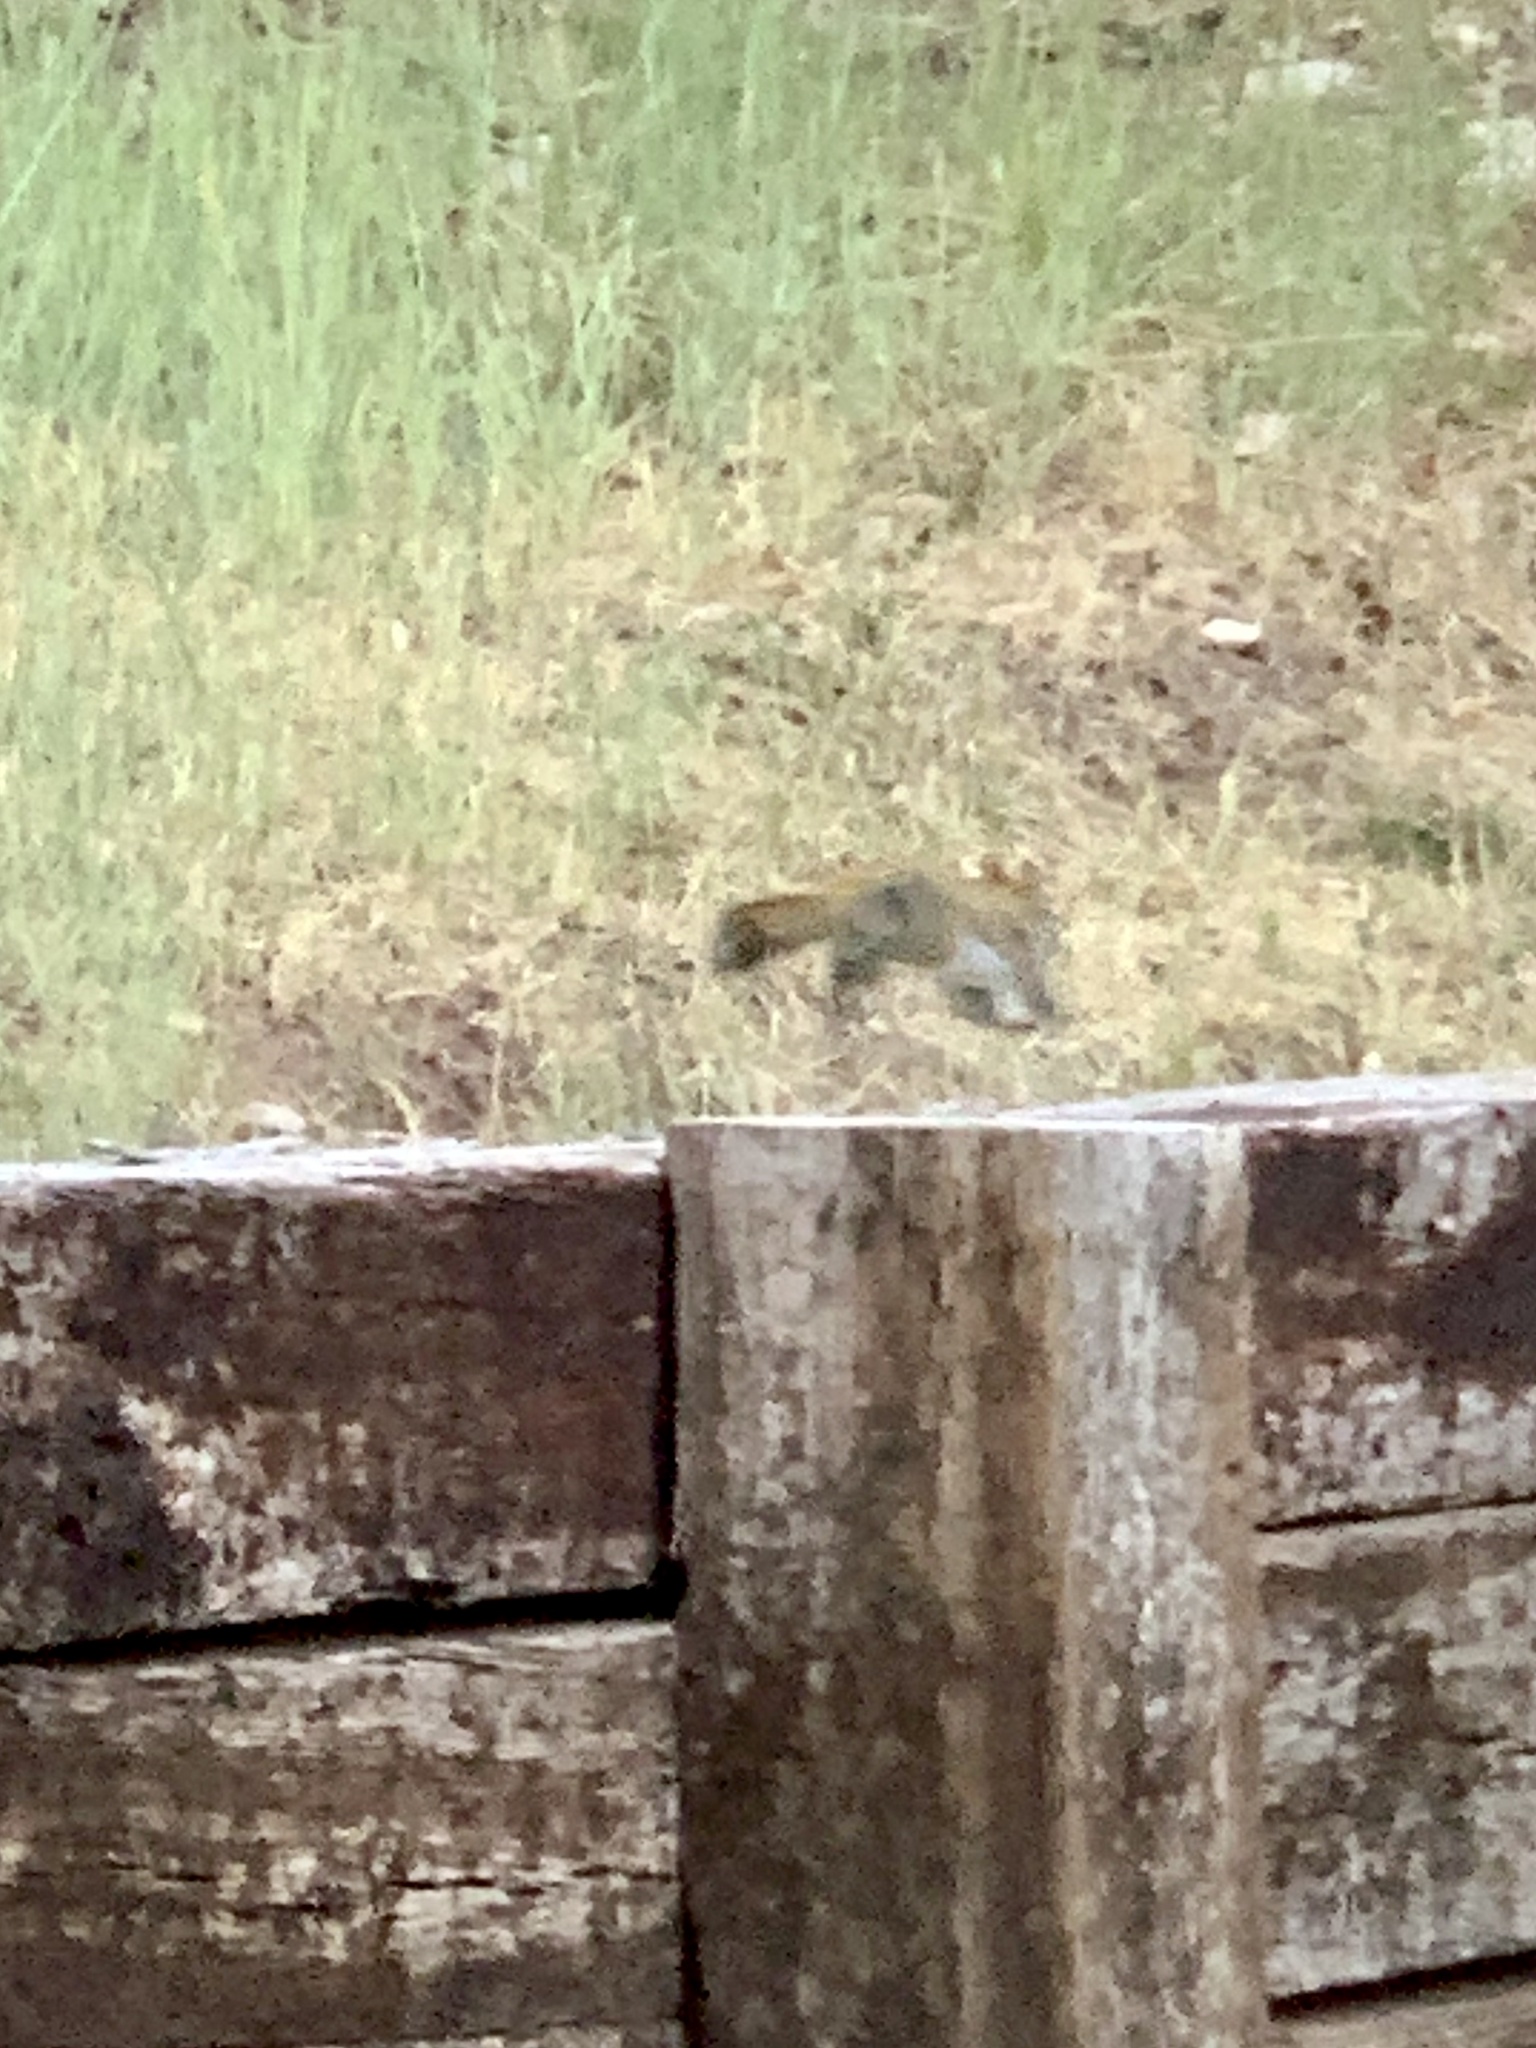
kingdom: Animalia
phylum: Chordata
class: Mammalia
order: Rodentia
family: Sciuridae
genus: Tamiasciurus
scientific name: Tamiasciurus hudsonicus
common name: Red squirrel
